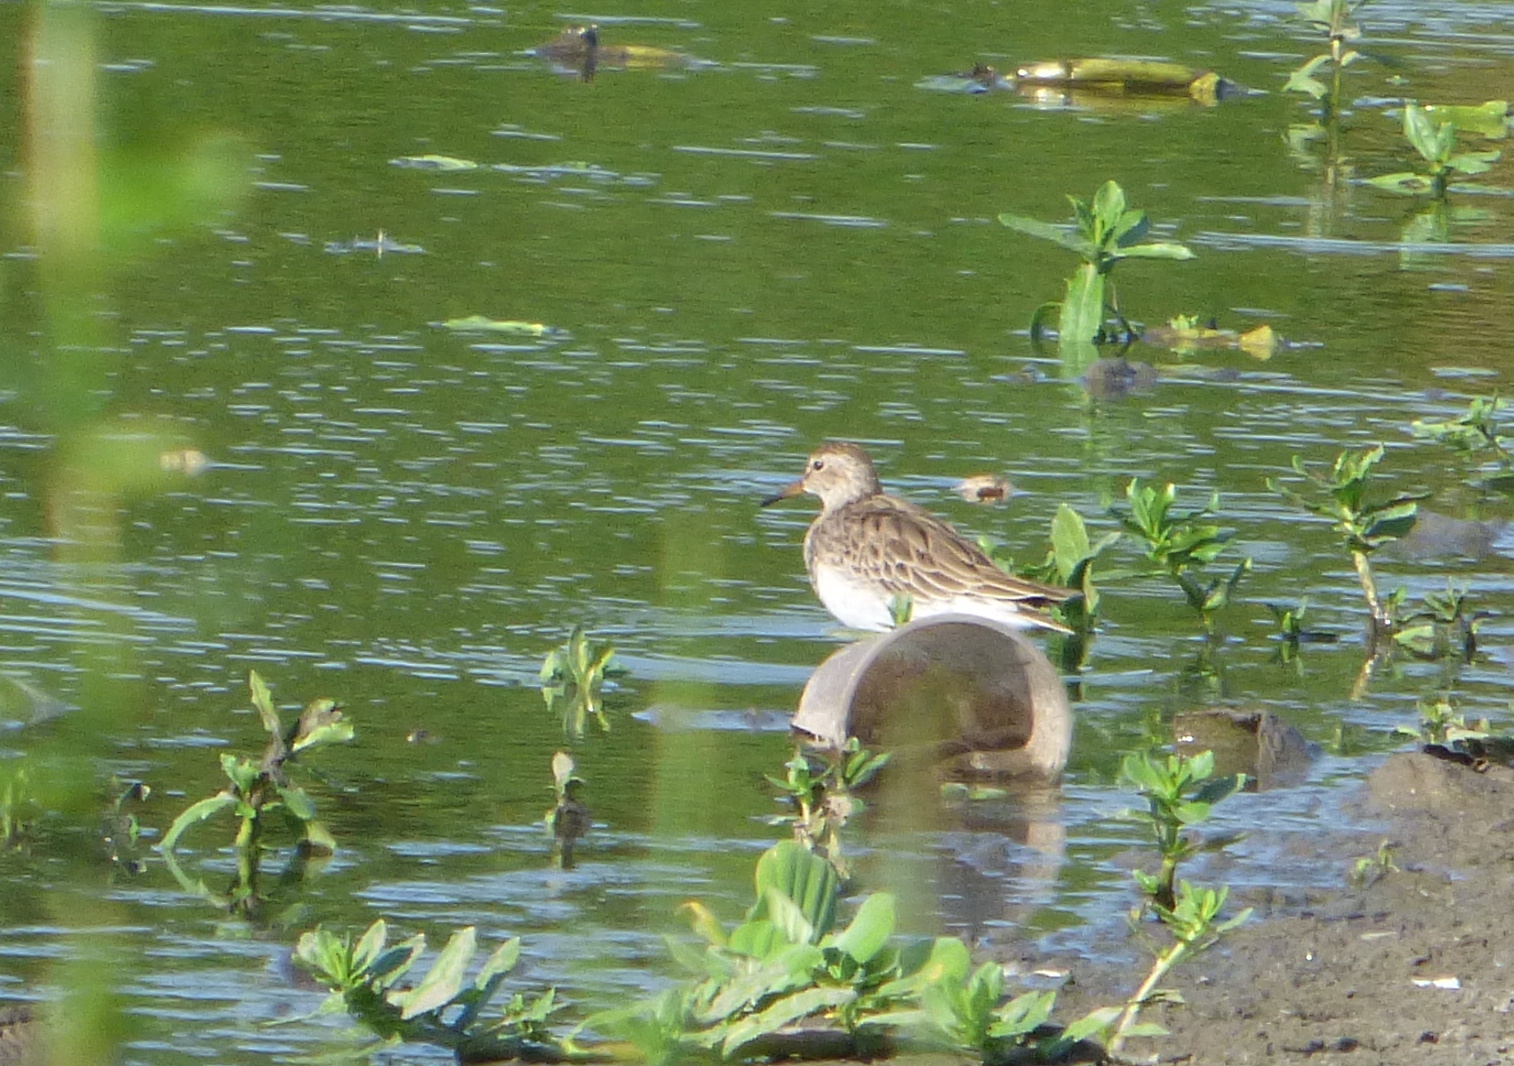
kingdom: Animalia
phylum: Chordata
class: Aves
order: Charadriiformes
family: Scolopacidae
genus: Calidris
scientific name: Calidris melanotos
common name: Pectoral sandpiper
